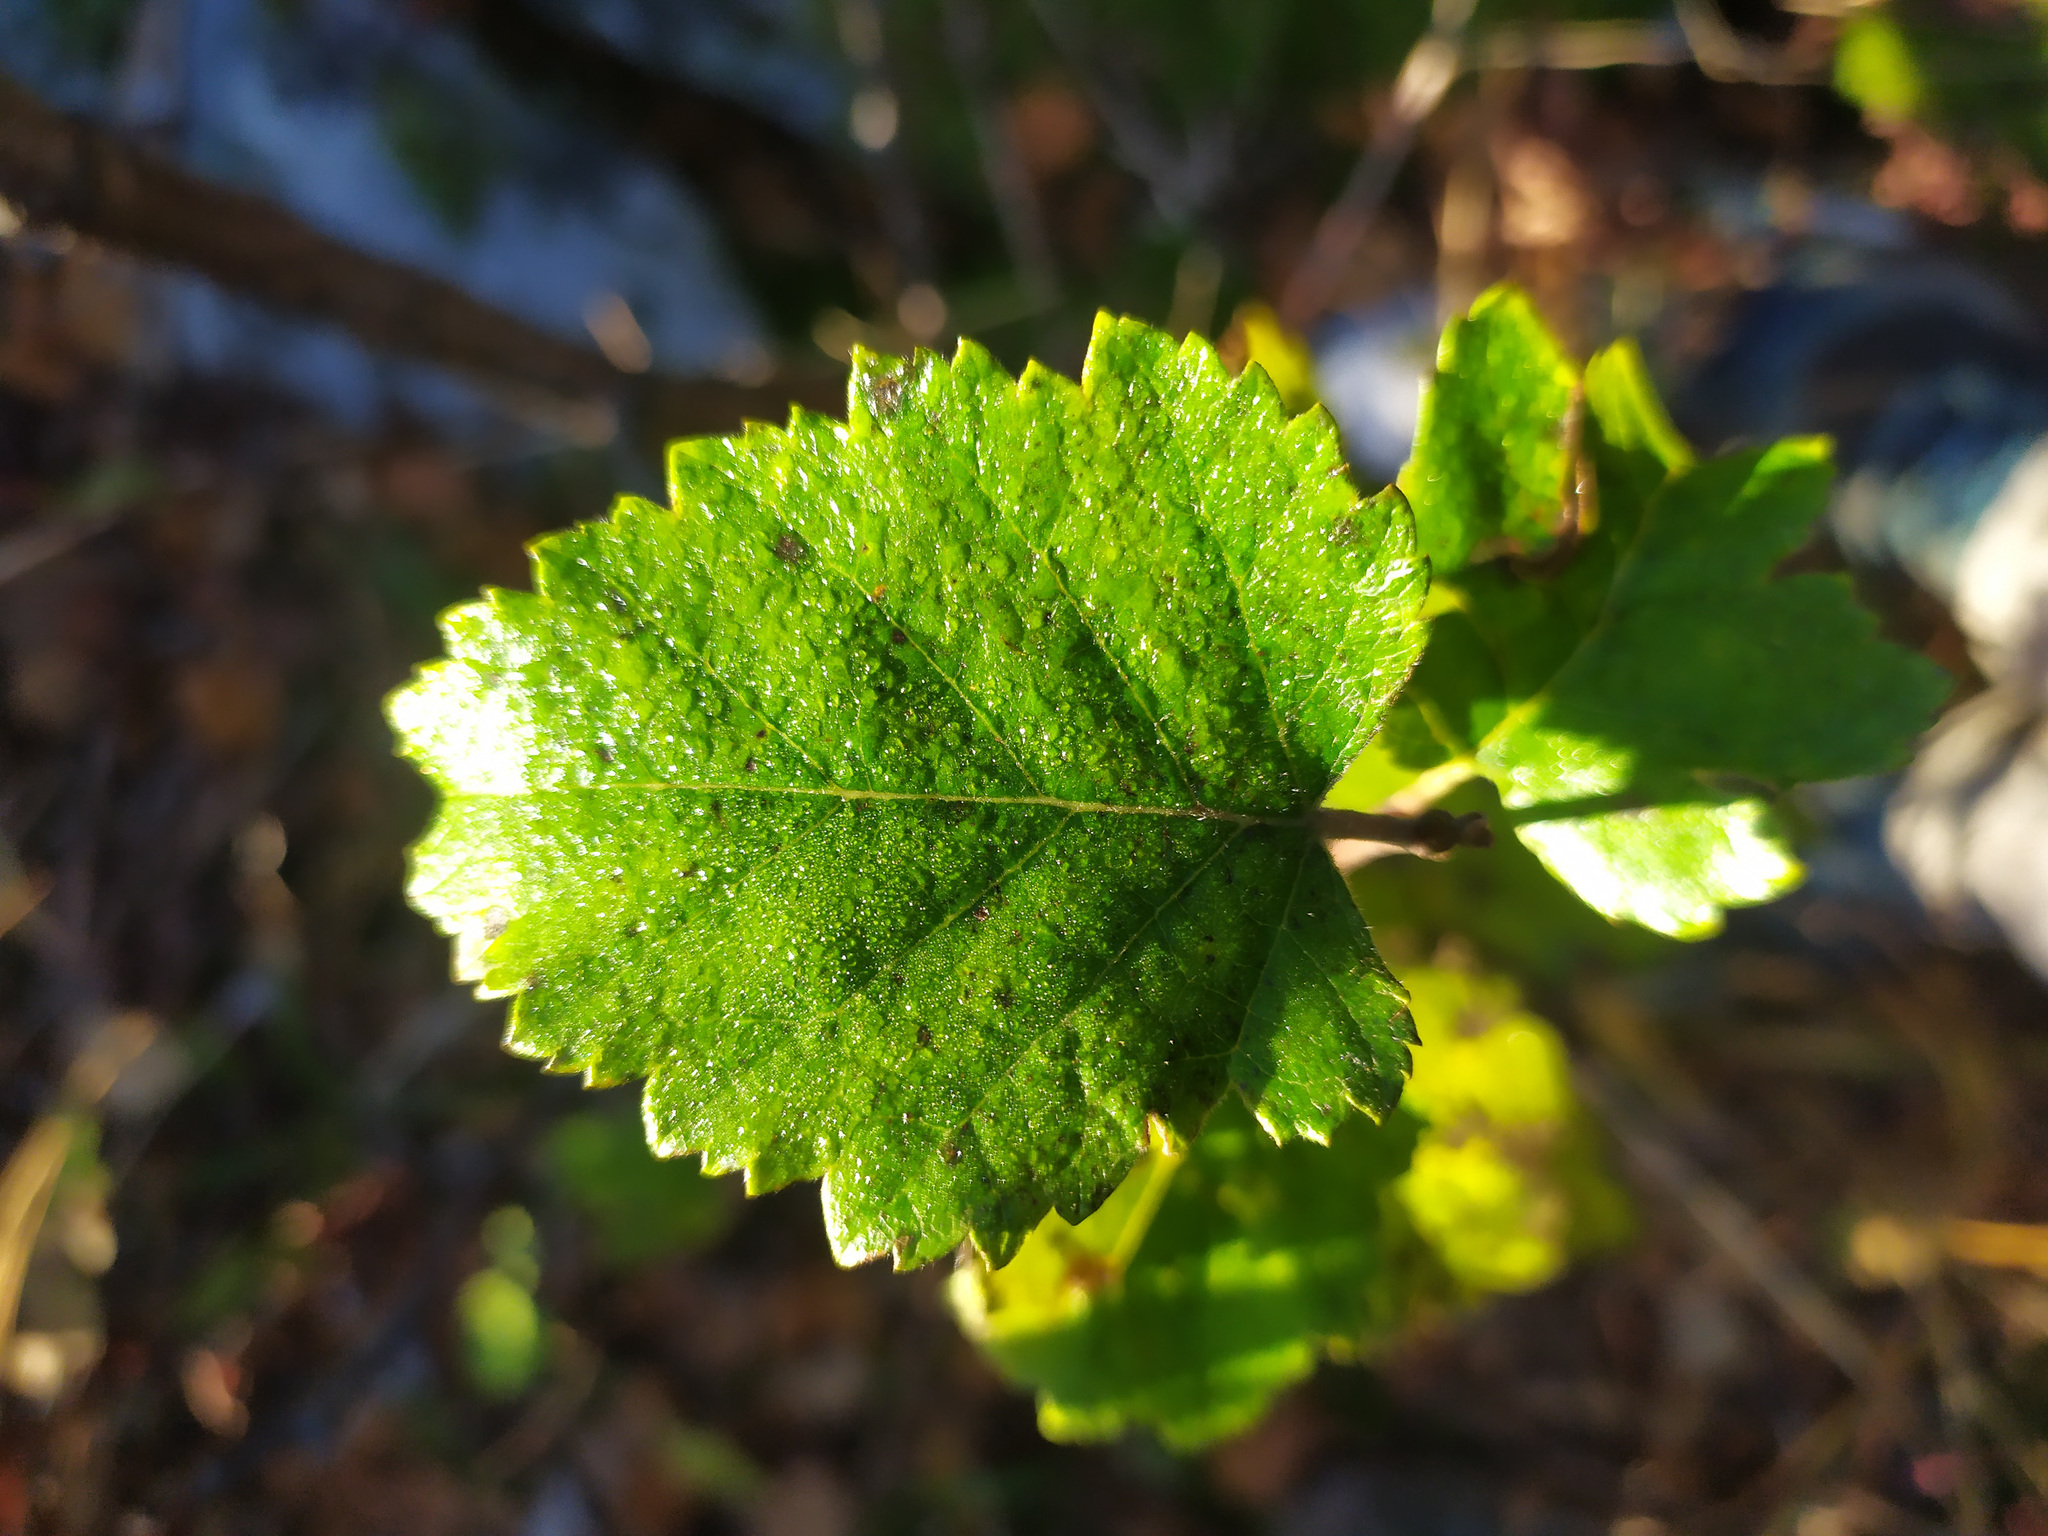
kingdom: Plantae
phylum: Tracheophyta
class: Magnoliopsida
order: Fagales
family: Betulaceae
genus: Betula
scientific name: Betula pubescens
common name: Downy birch
